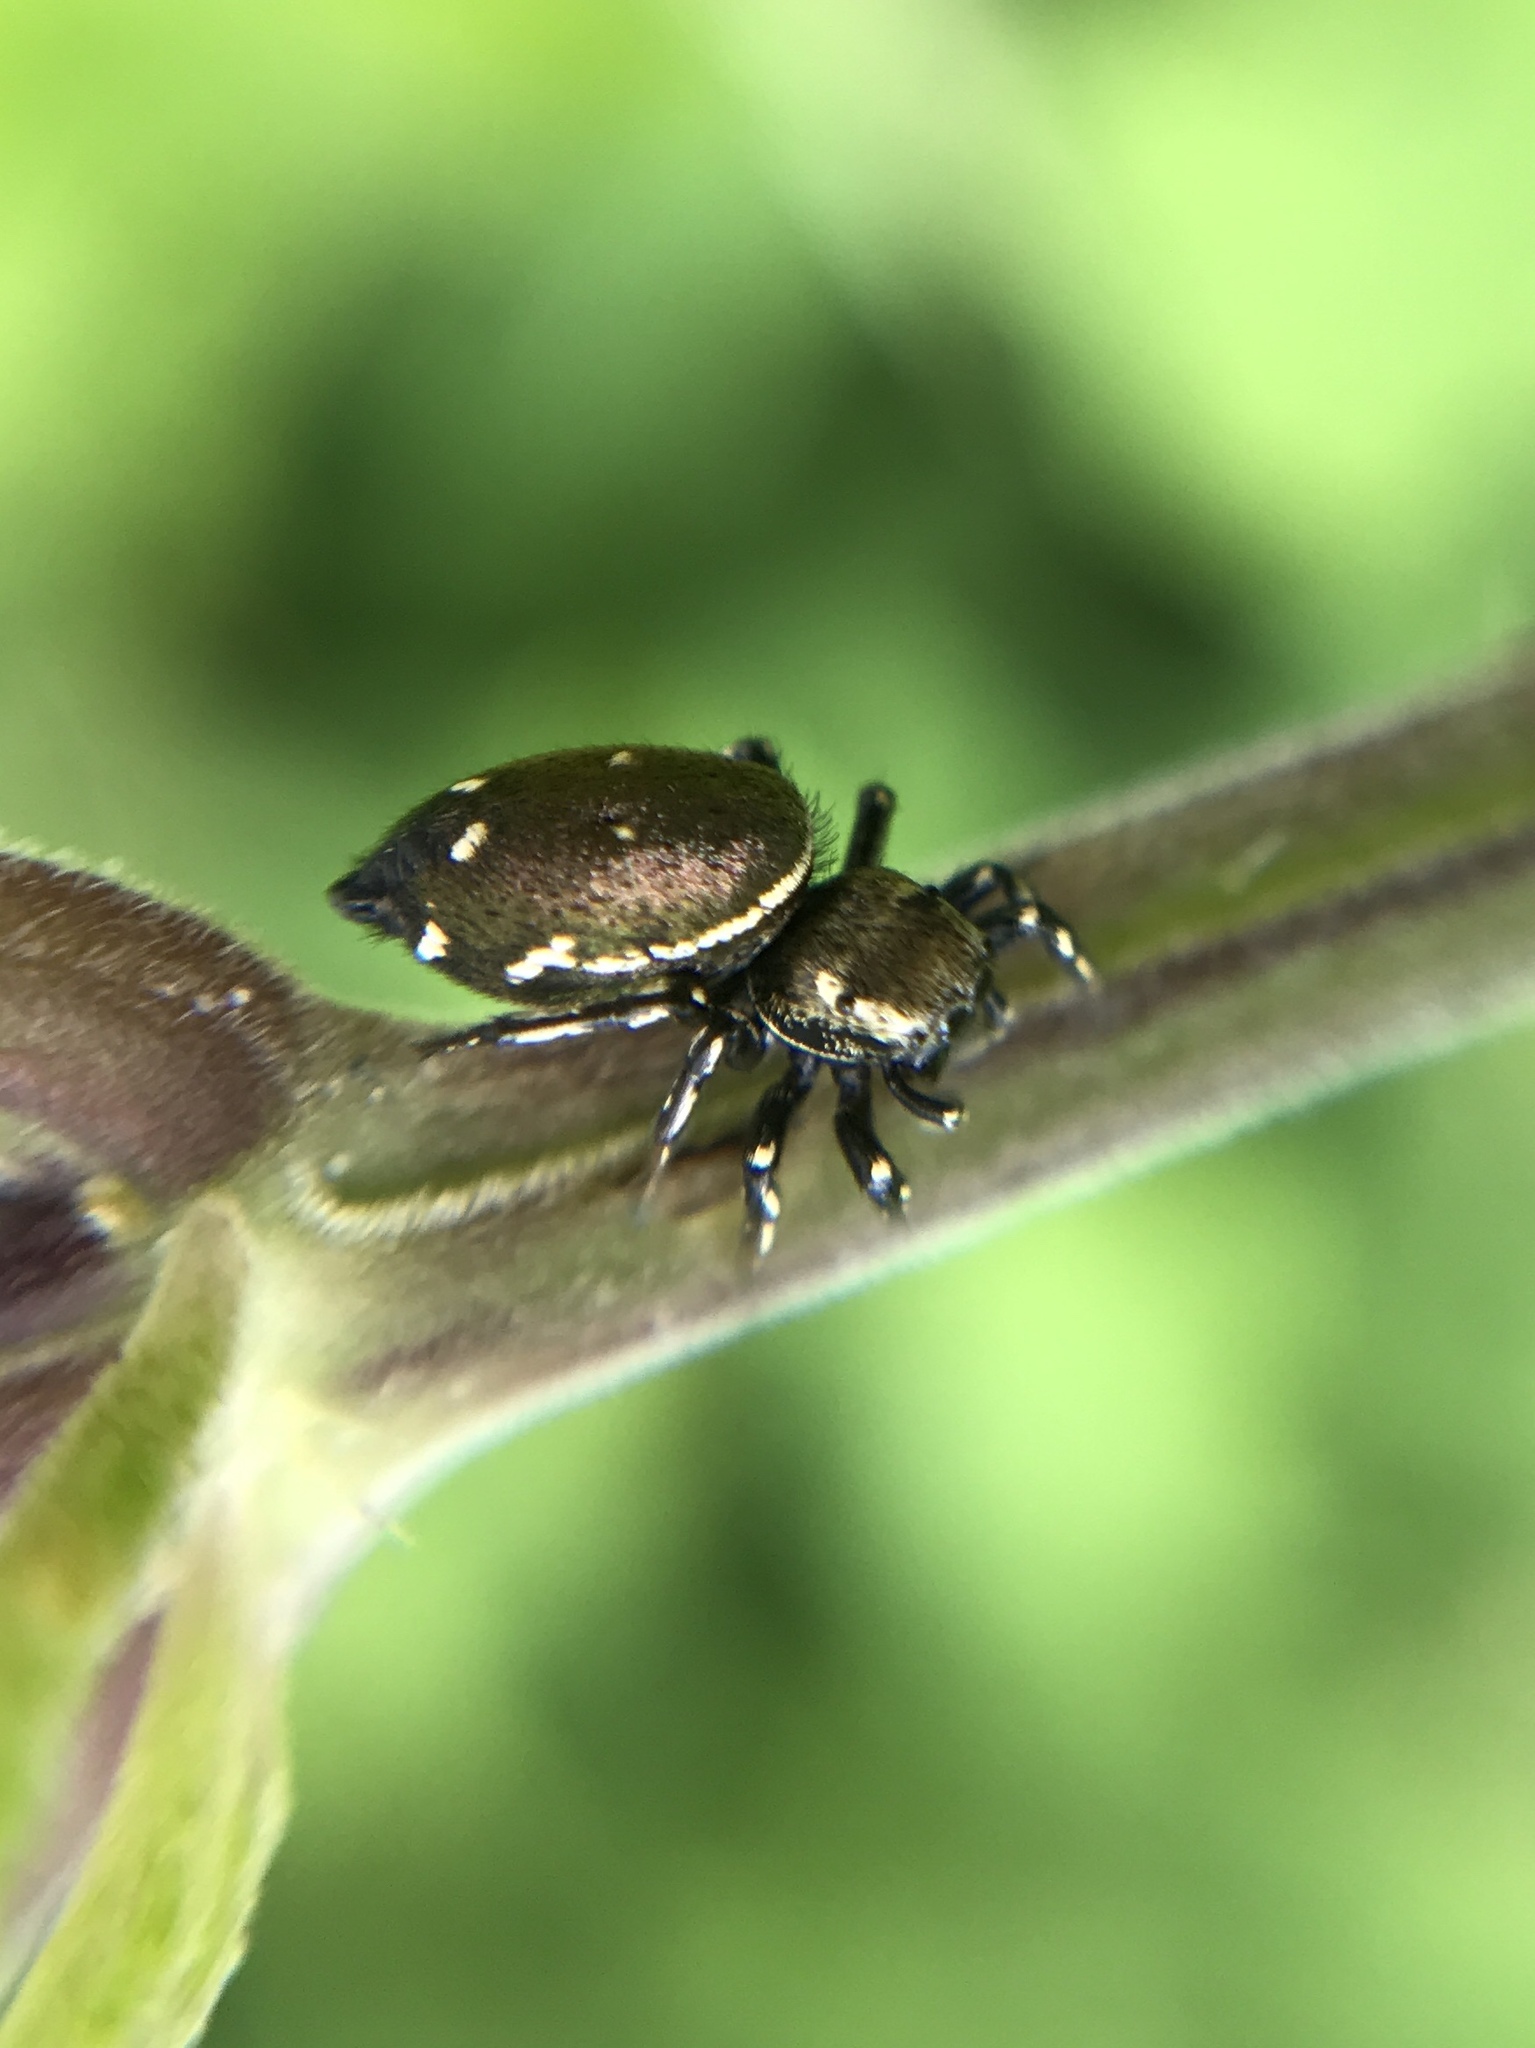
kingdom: Animalia
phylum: Arthropoda
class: Arachnida
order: Araneae
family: Salticidae
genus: Heliophanus
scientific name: Heliophanus kochii
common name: Sun jumping spider
